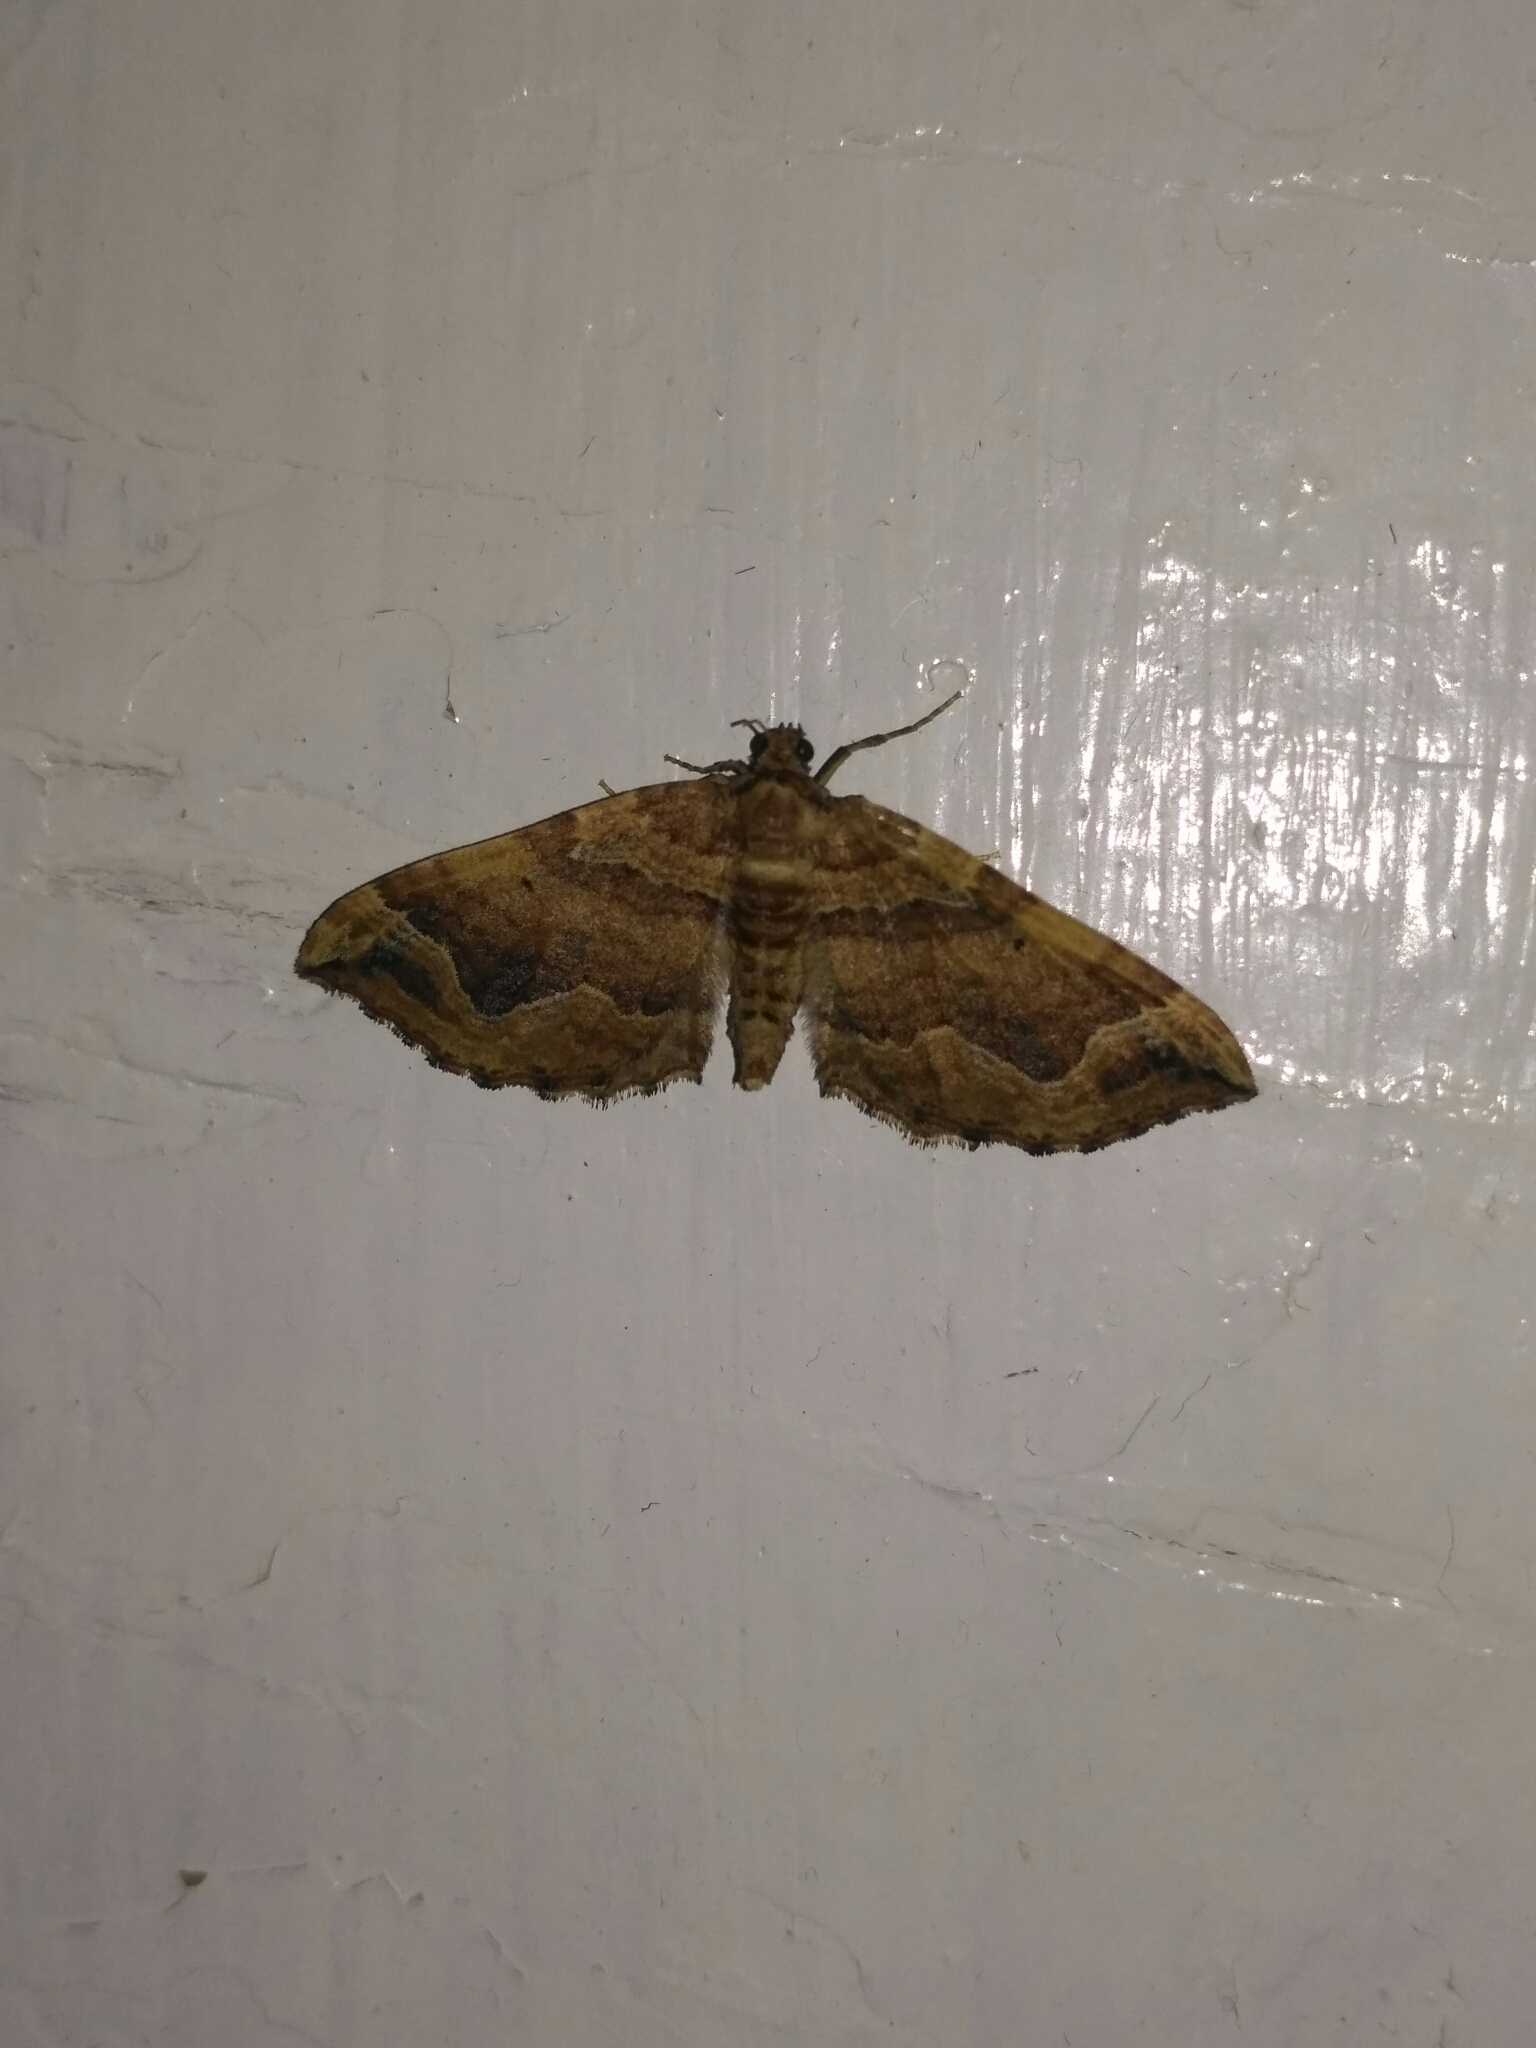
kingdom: Animalia
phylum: Arthropoda
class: Insecta
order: Lepidoptera
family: Geometridae
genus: Pelurga
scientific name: Pelurga comitata
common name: Dark spinach
